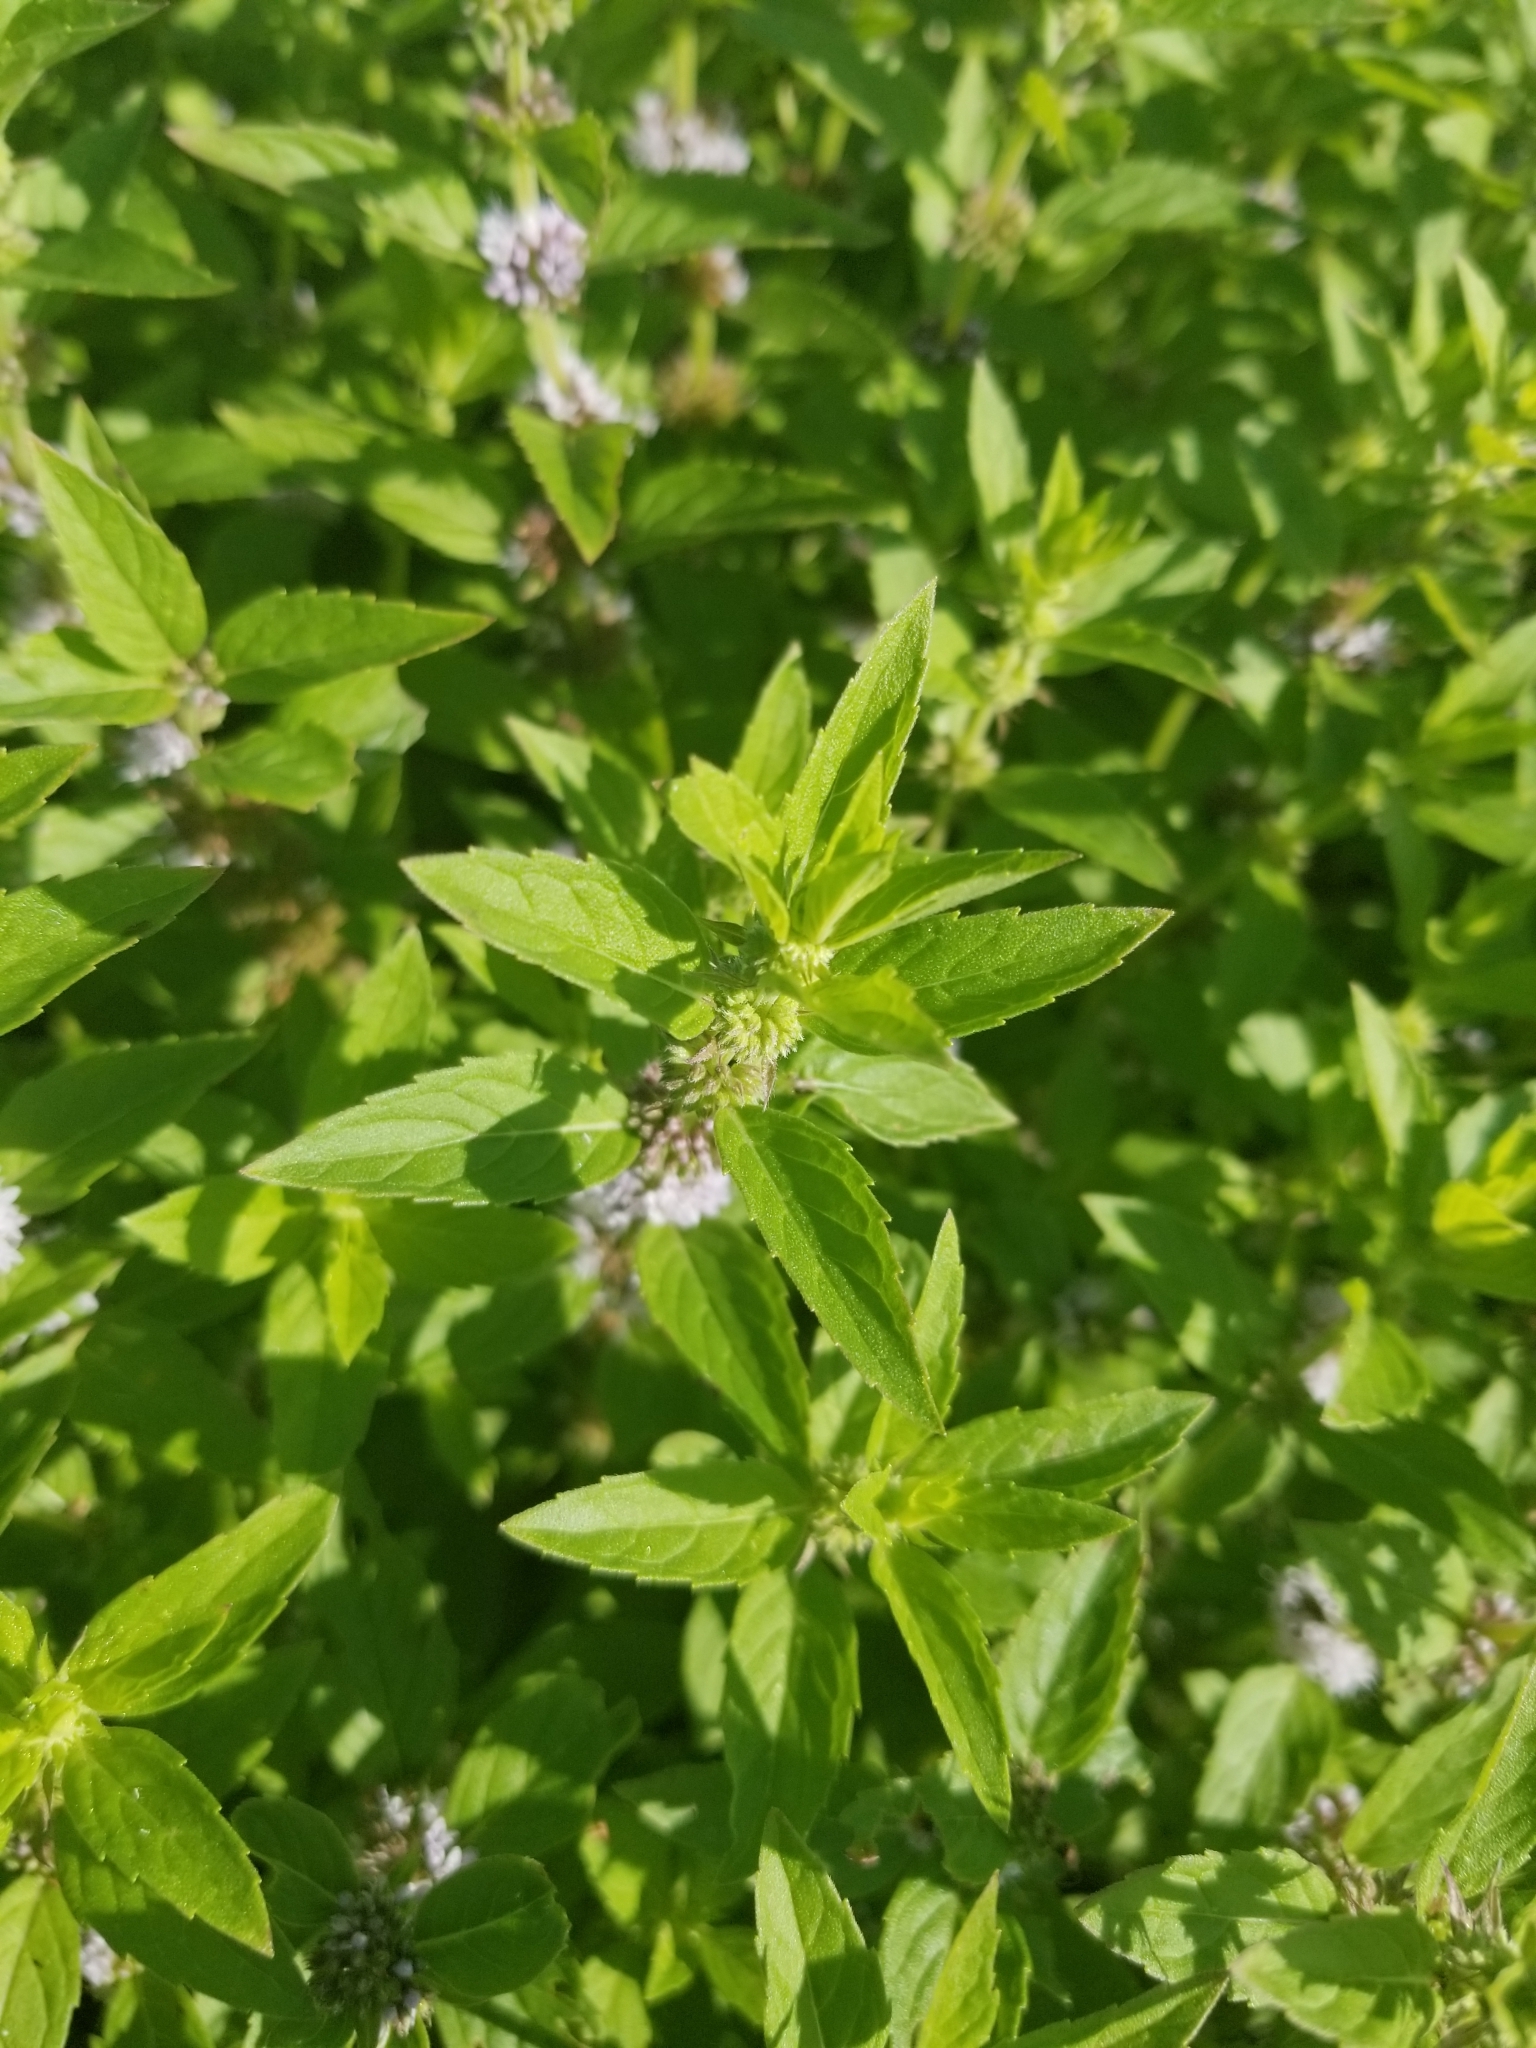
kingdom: Plantae
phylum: Tracheophyta
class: Magnoliopsida
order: Lamiales
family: Lamiaceae
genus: Mentha
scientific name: Mentha canadensis
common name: American corn mint
